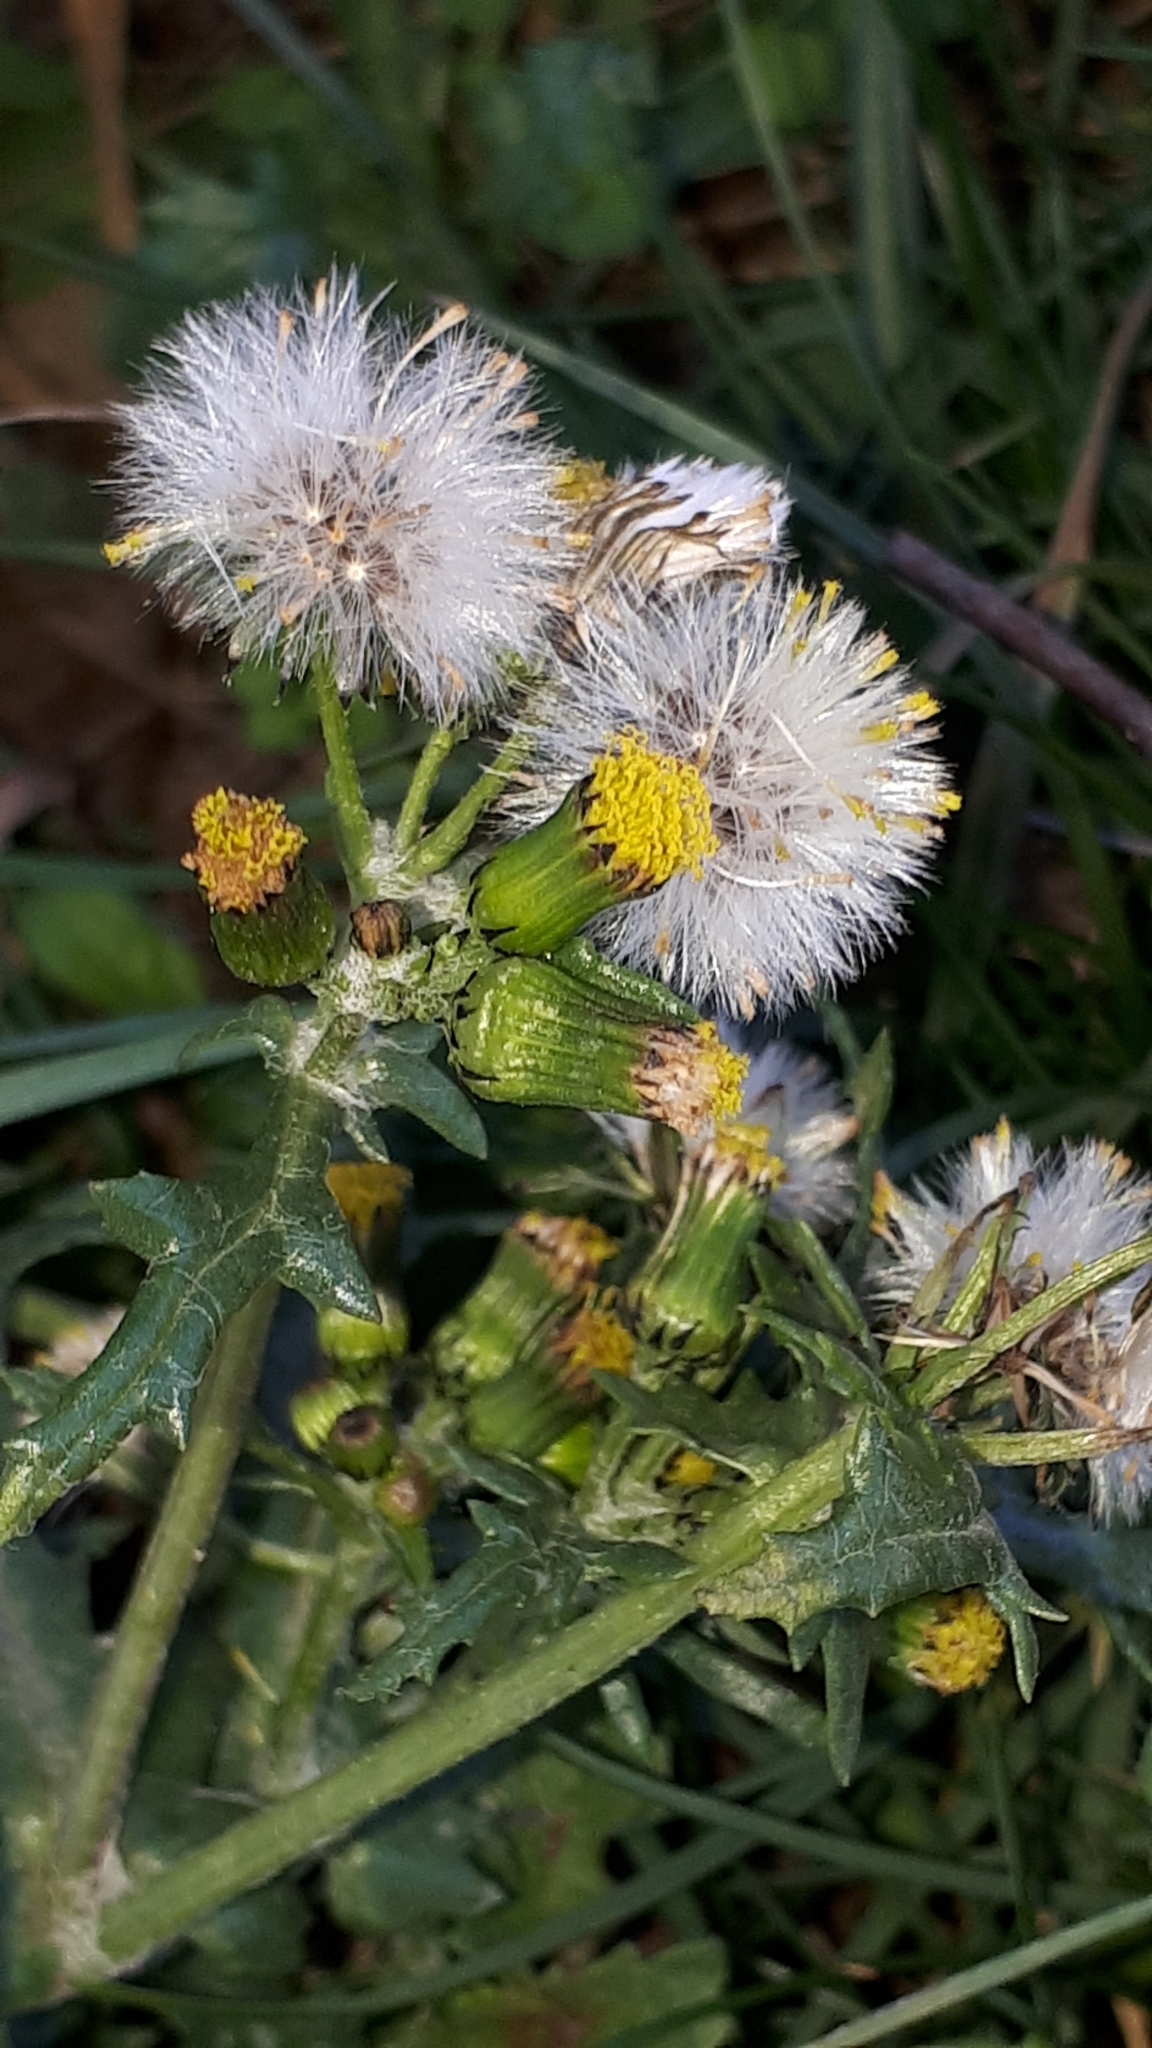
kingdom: Plantae
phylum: Tracheophyta
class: Magnoliopsida
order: Asterales
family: Asteraceae
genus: Senecio
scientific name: Senecio vulgaris
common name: Old-man-in-the-spring
